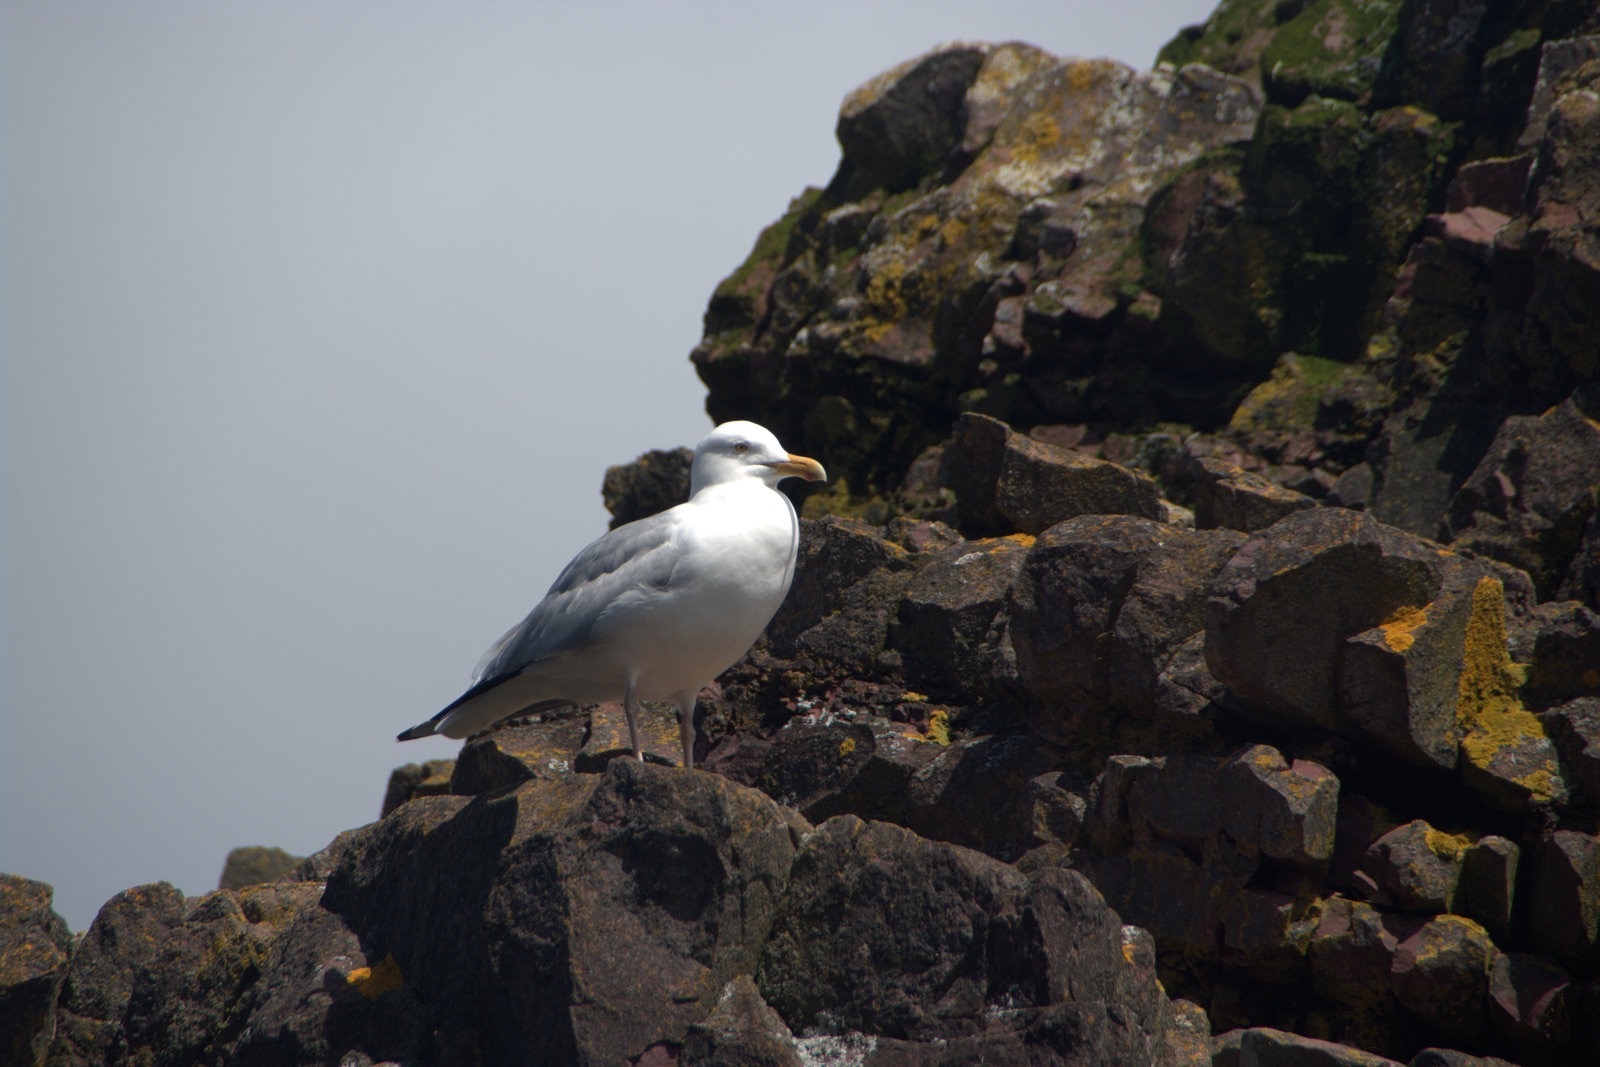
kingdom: Animalia
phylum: Chordata
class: Aves
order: Charadriiformes
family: Laridae
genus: Larus
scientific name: Larus argentatus
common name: Herring gull
